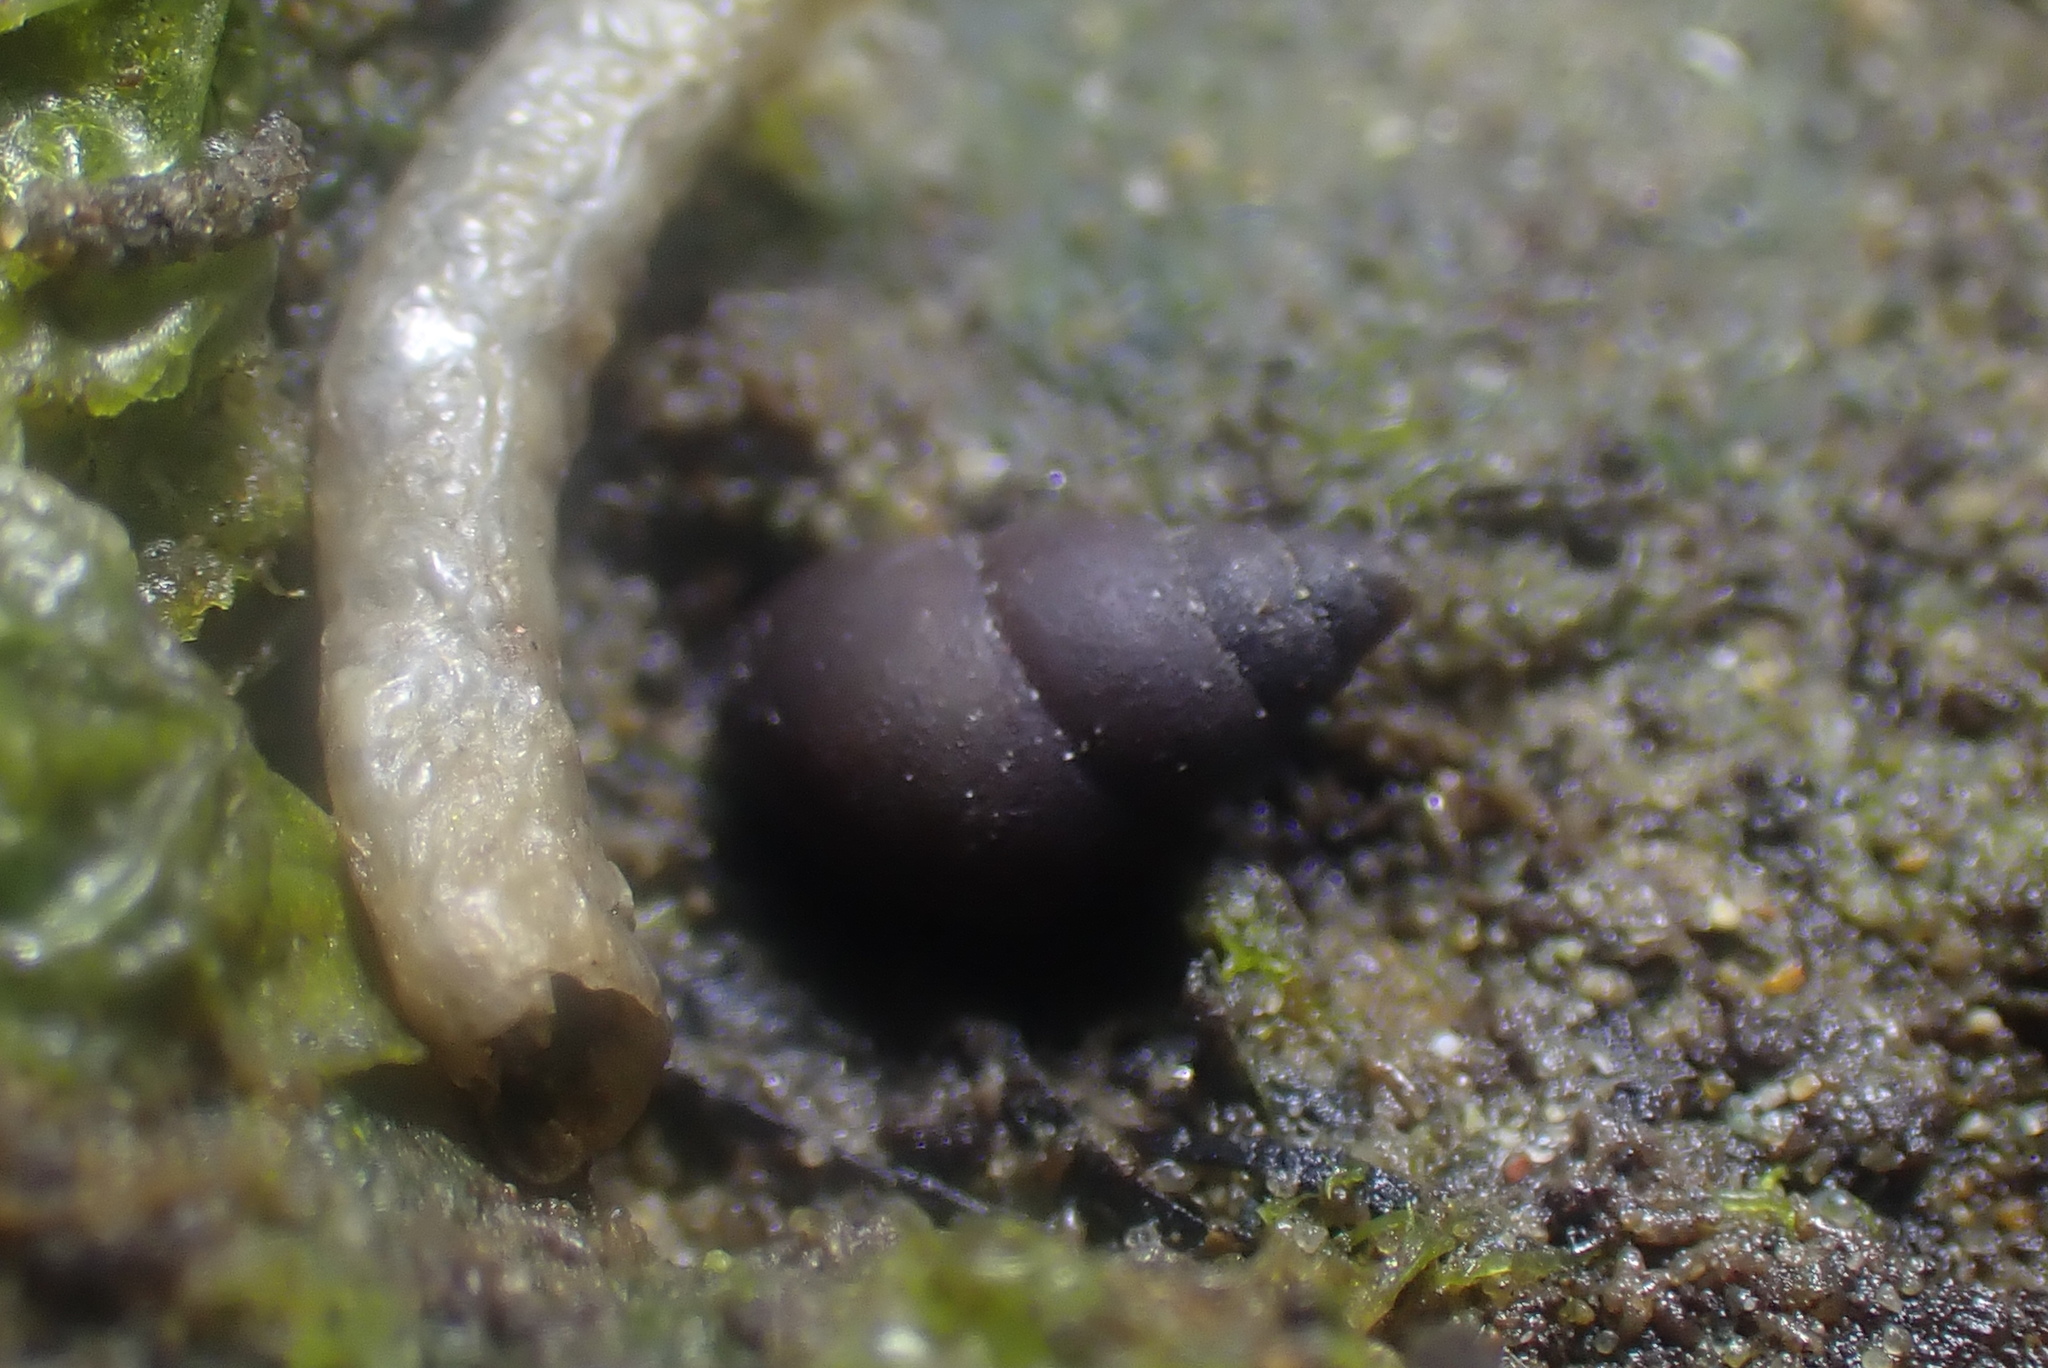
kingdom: Animalia
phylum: Mollusca
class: Gastropoda
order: Littorinimorpha
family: Tateidae
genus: Potamopyrgus
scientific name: Potamopyrgus estuarinus
